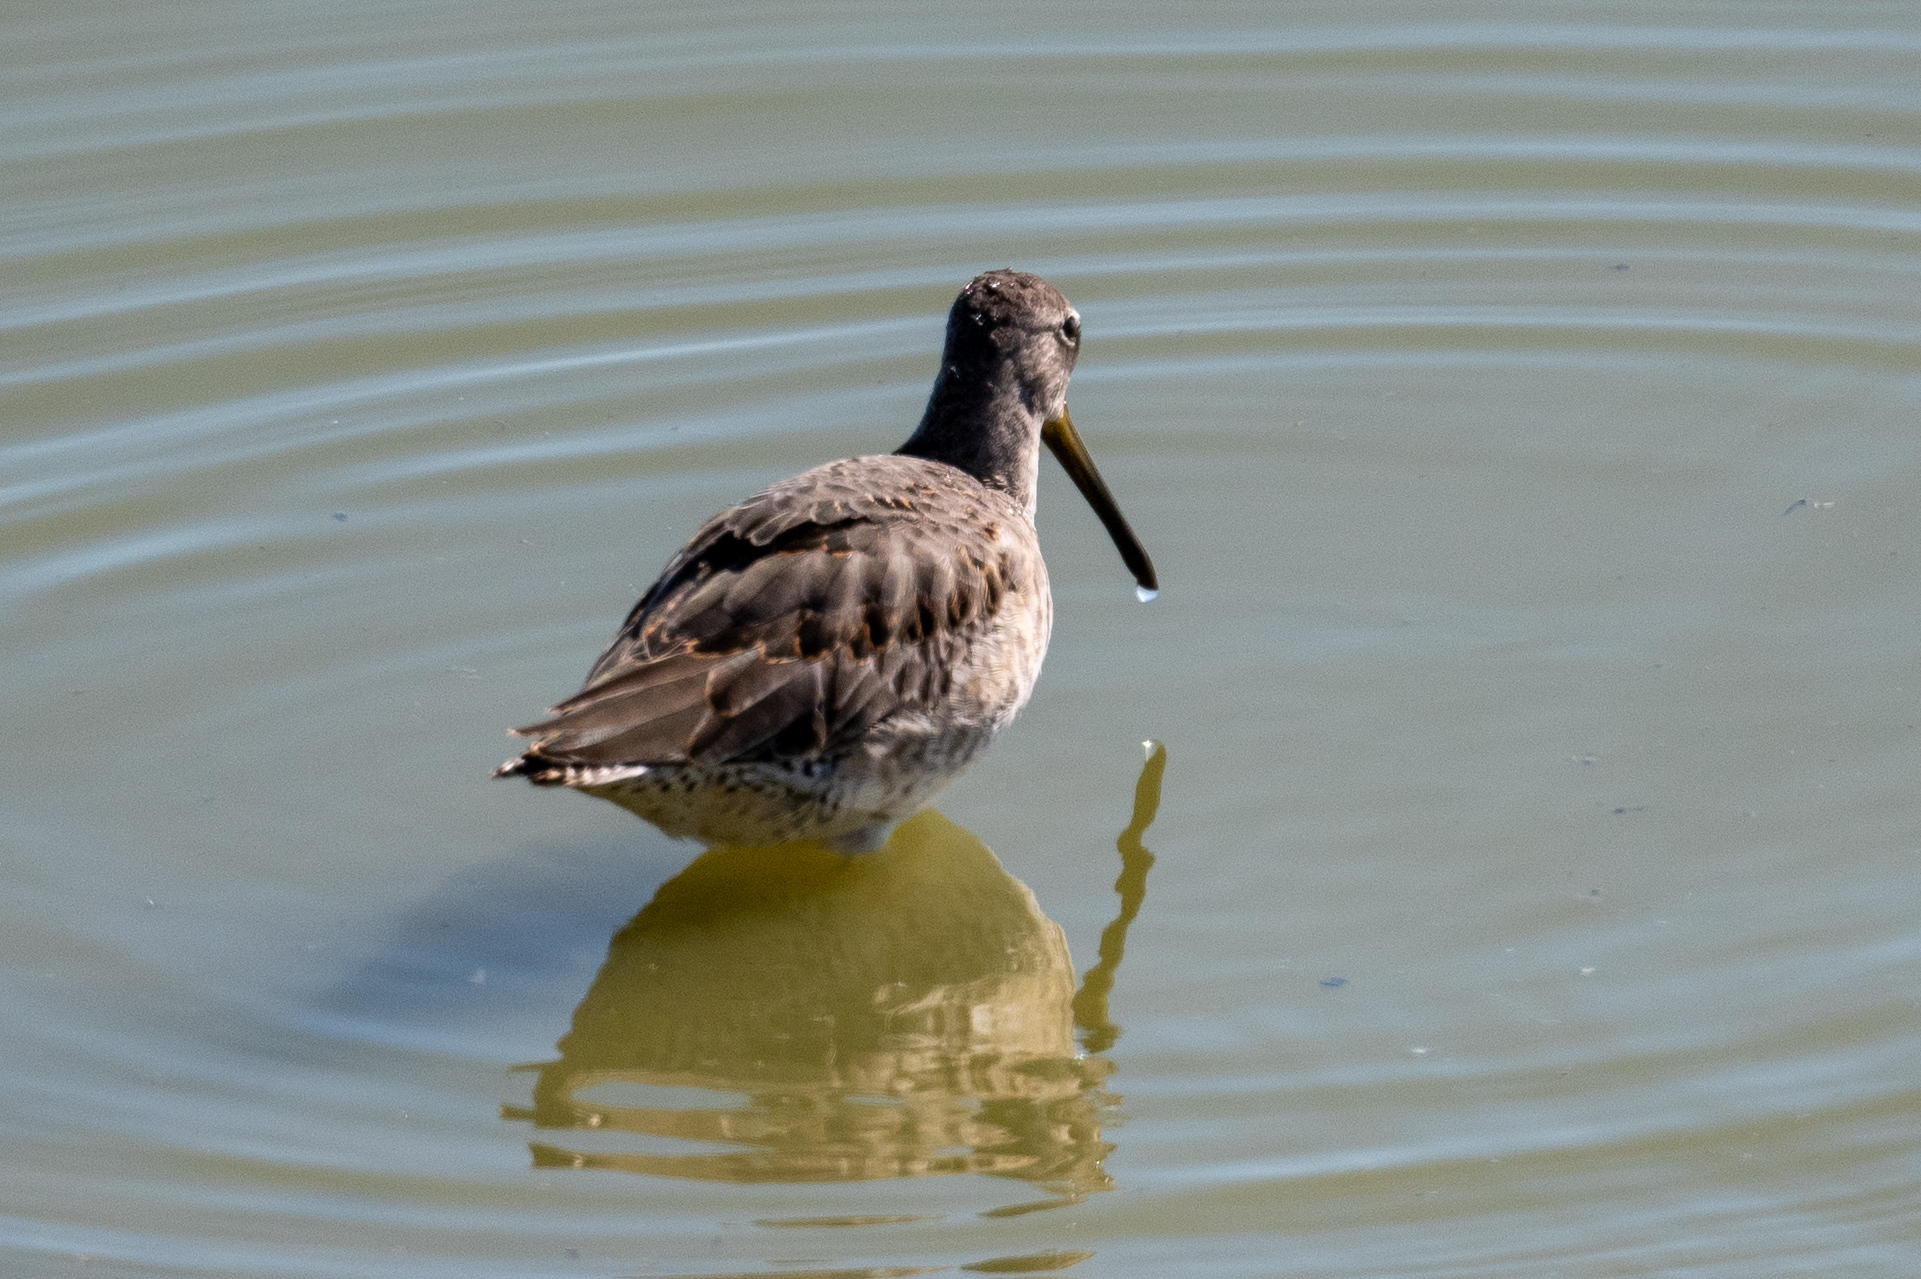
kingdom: Animalia
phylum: Chordata
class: Aves
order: Charadriiformes
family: Scolopacidae
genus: Limnodromus
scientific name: Limnodromus scolopaceus
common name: Long-billed dowitcher
